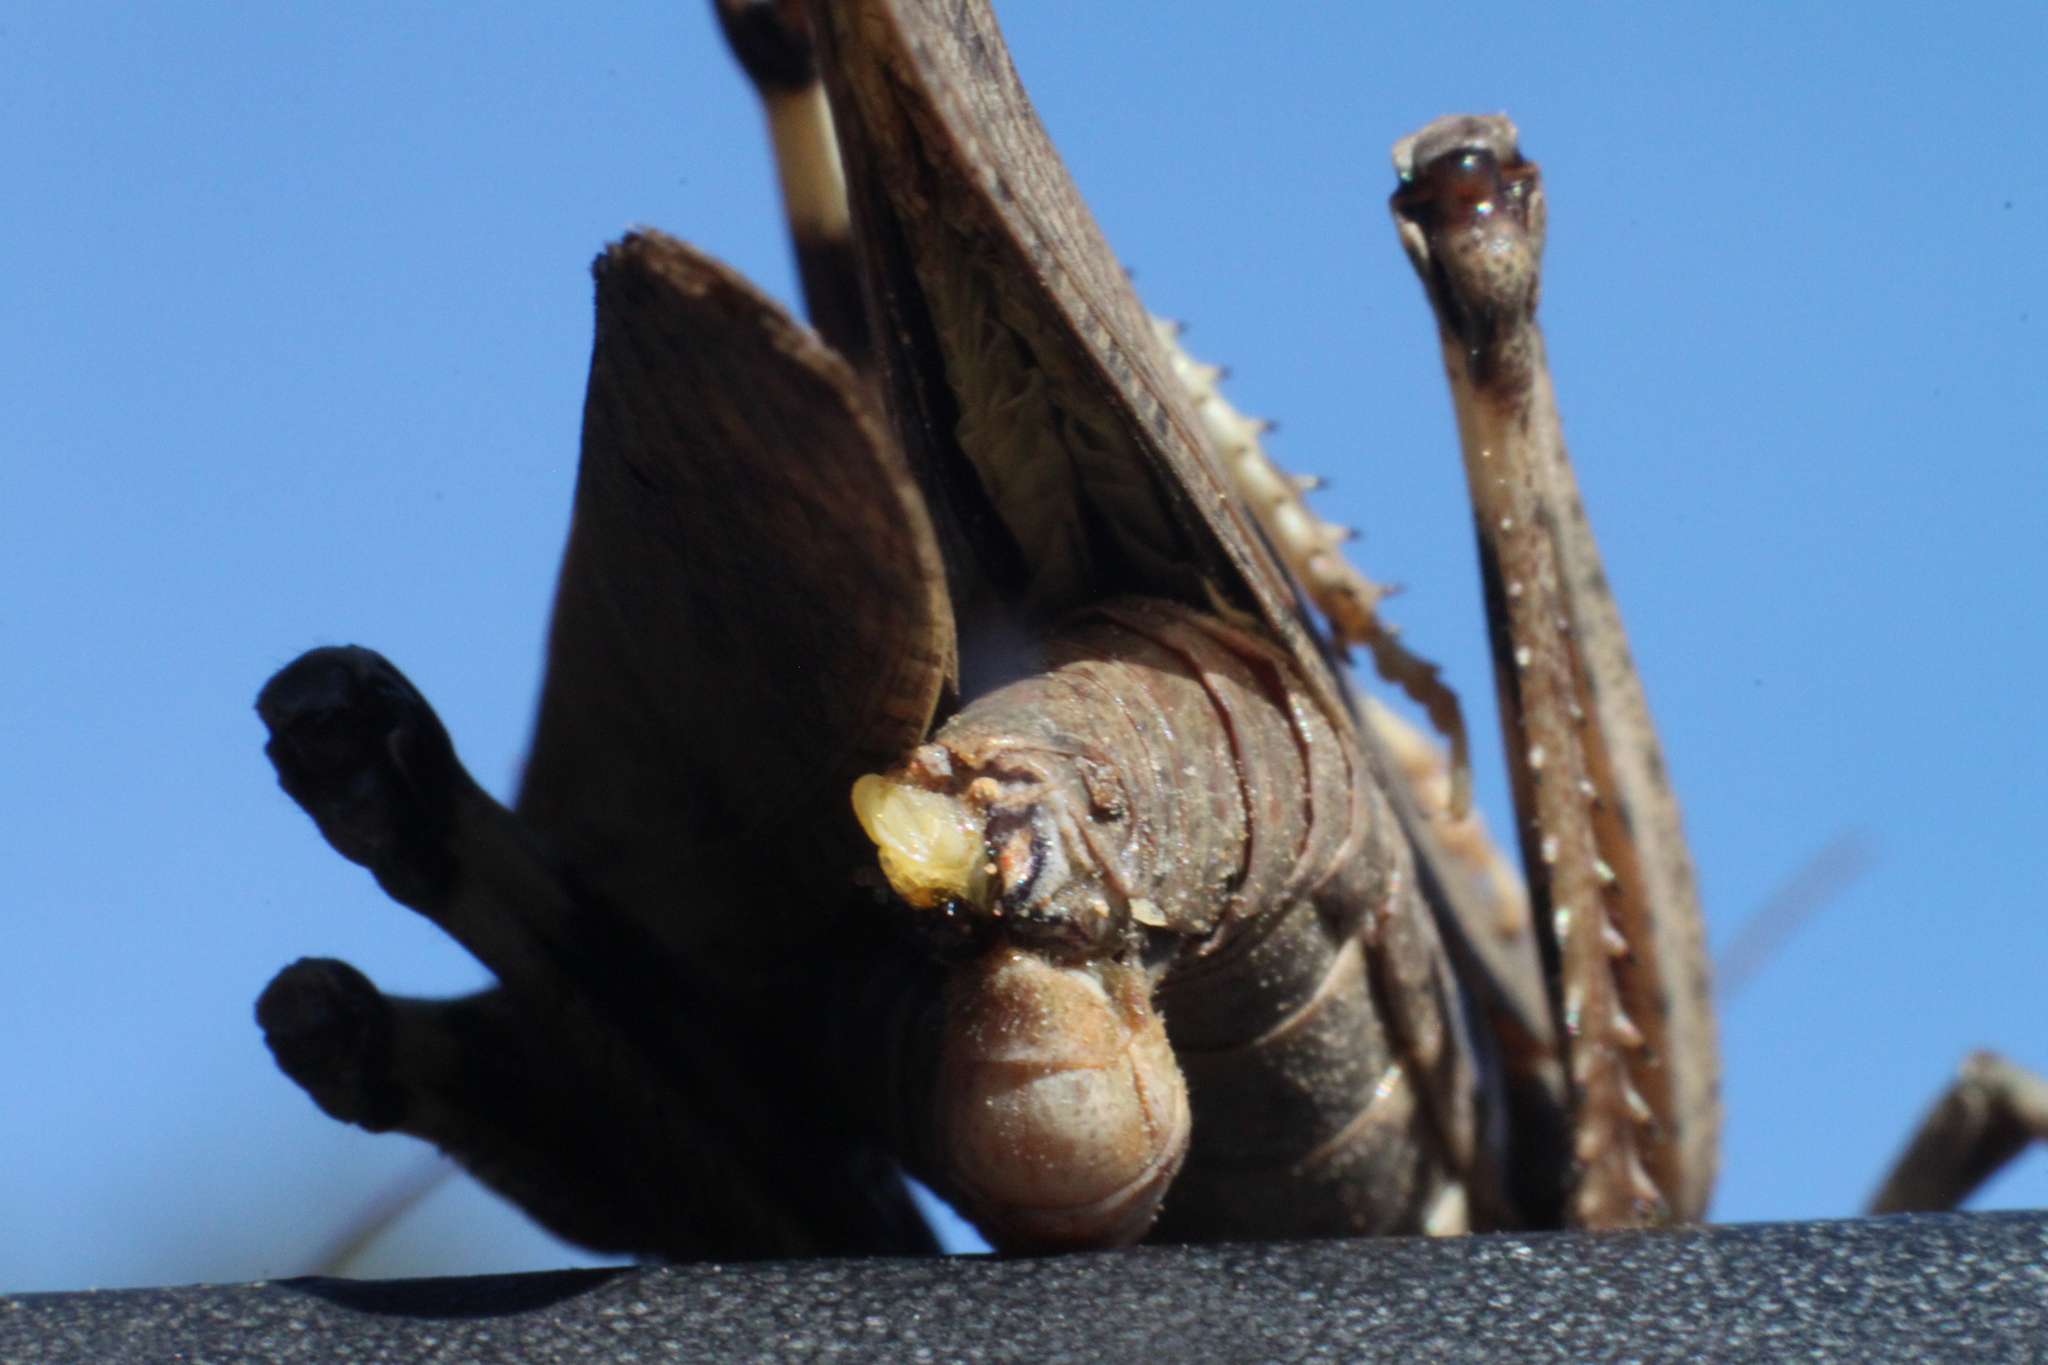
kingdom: Animalia
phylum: Arthropoda
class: Insecta
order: Orthoptera
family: Acrididae
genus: Dissosteira
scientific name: Dissosteira carolina
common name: Carolina grasshopper
